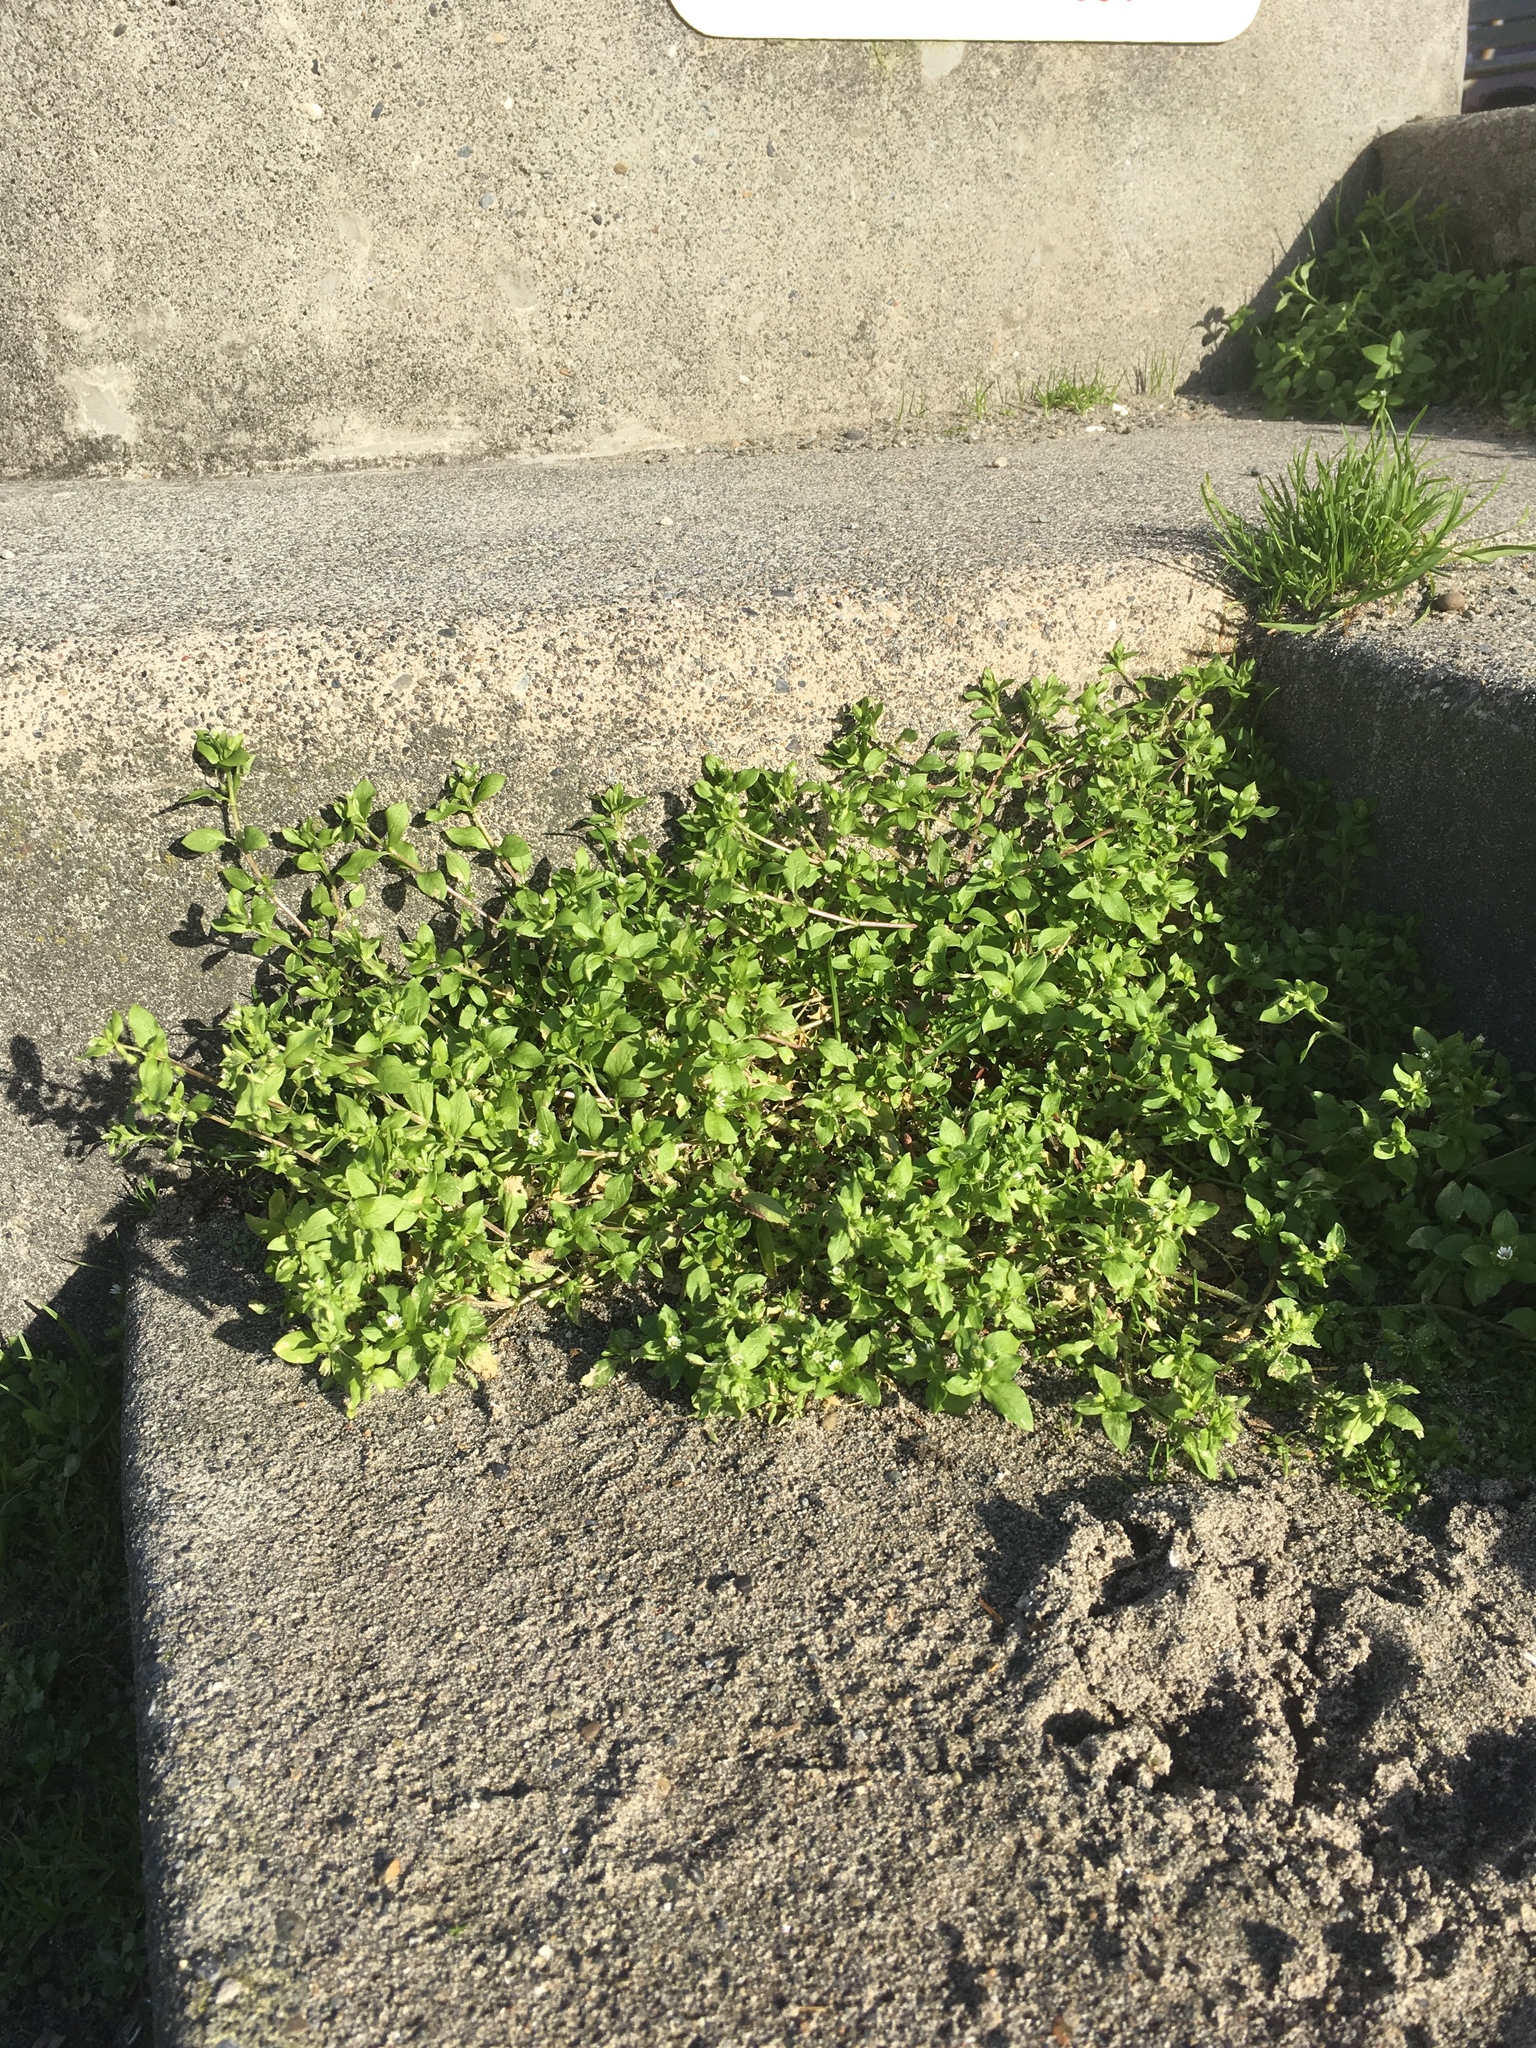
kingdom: Plantae
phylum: Tracheophyta
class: Magnoliopsida
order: Caryophyllales
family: Caryophyllaceae
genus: Stellaria
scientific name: Stellaria media
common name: Common chickweed
